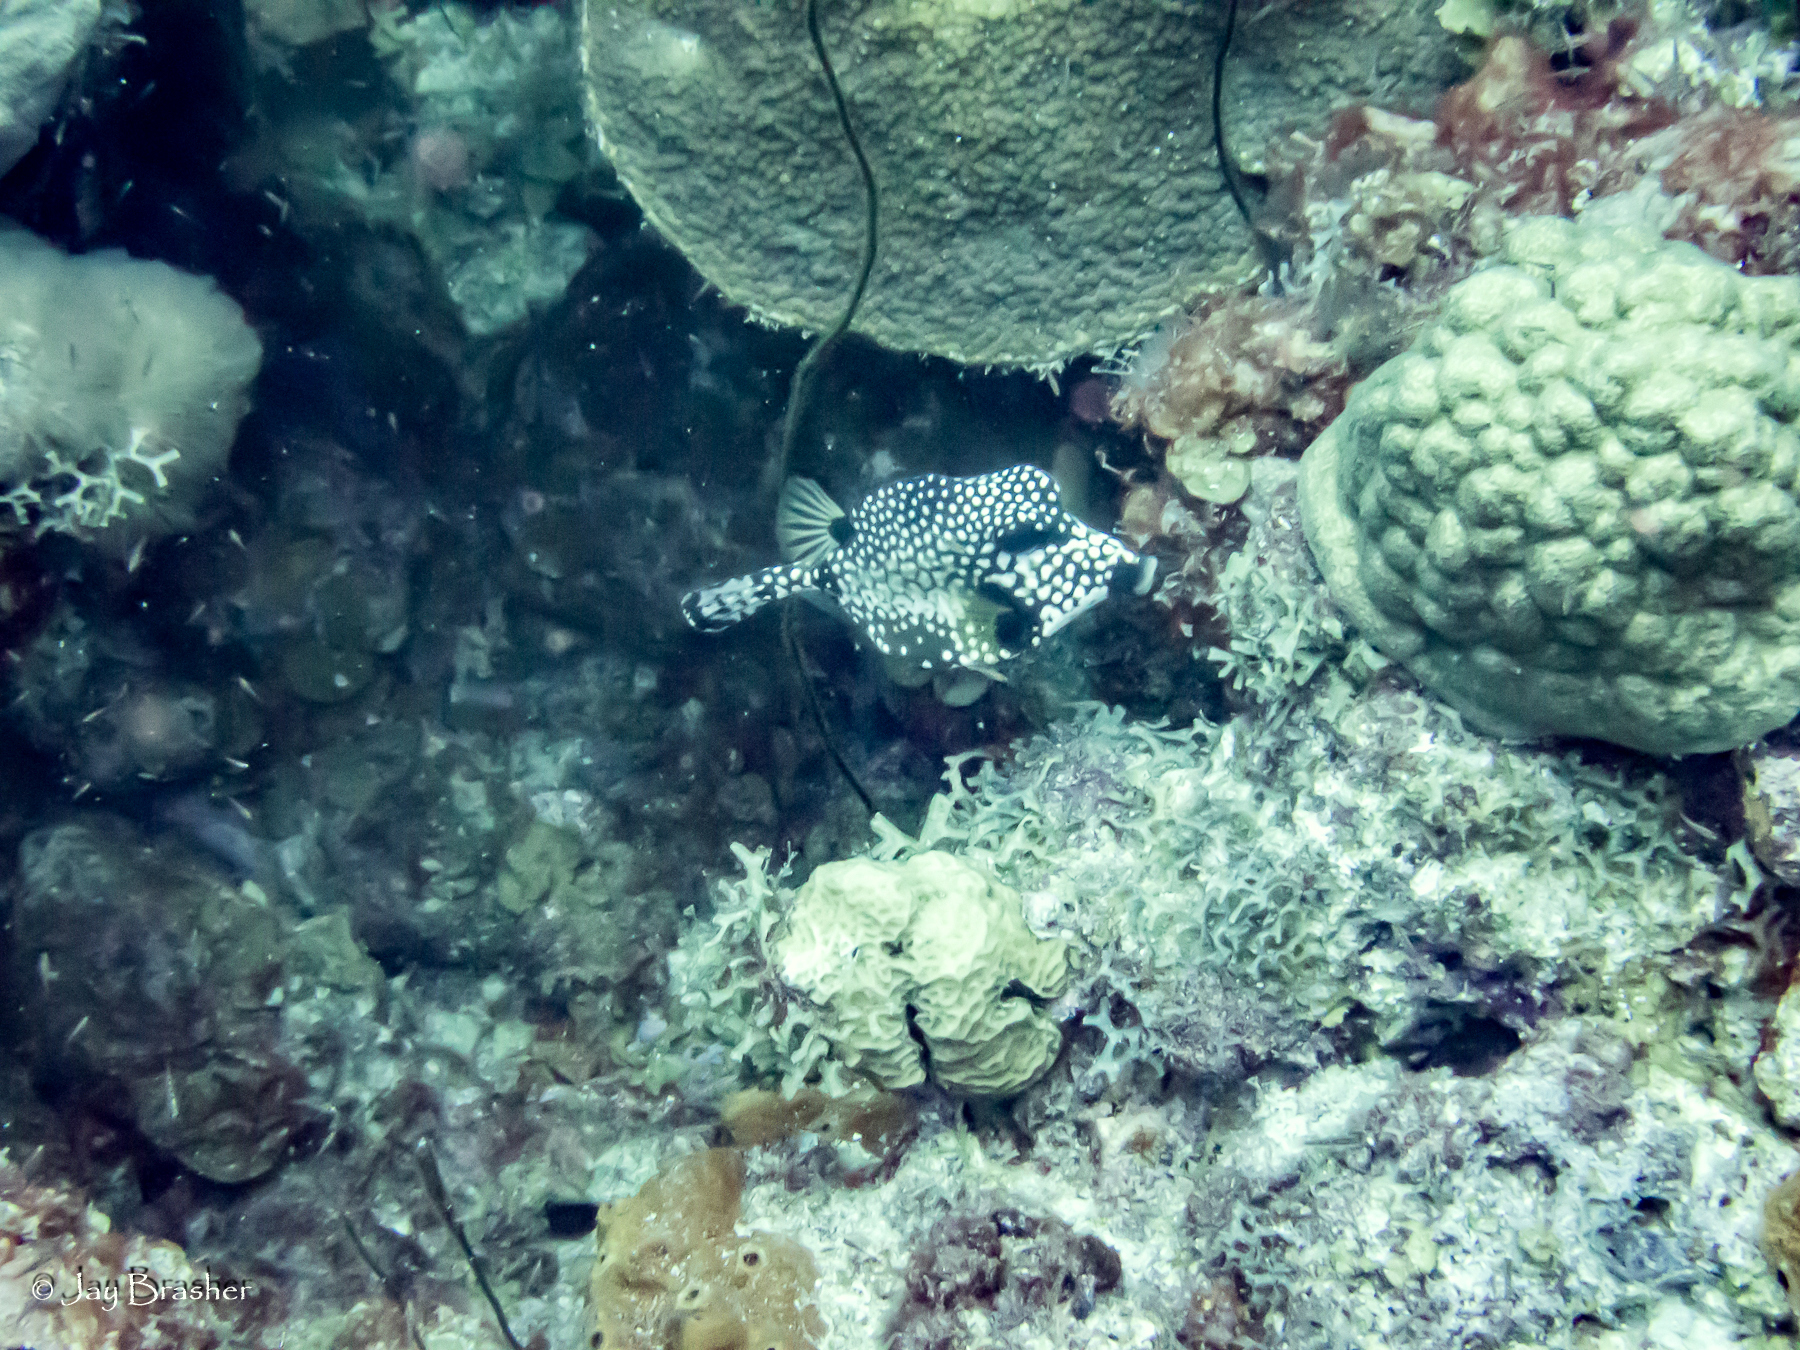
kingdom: Animalia
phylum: Cnidaria
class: Anthozoa
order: Scleractinia
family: Poritidae
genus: Porites
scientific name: Porites astreoides
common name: Mustard hill coral
